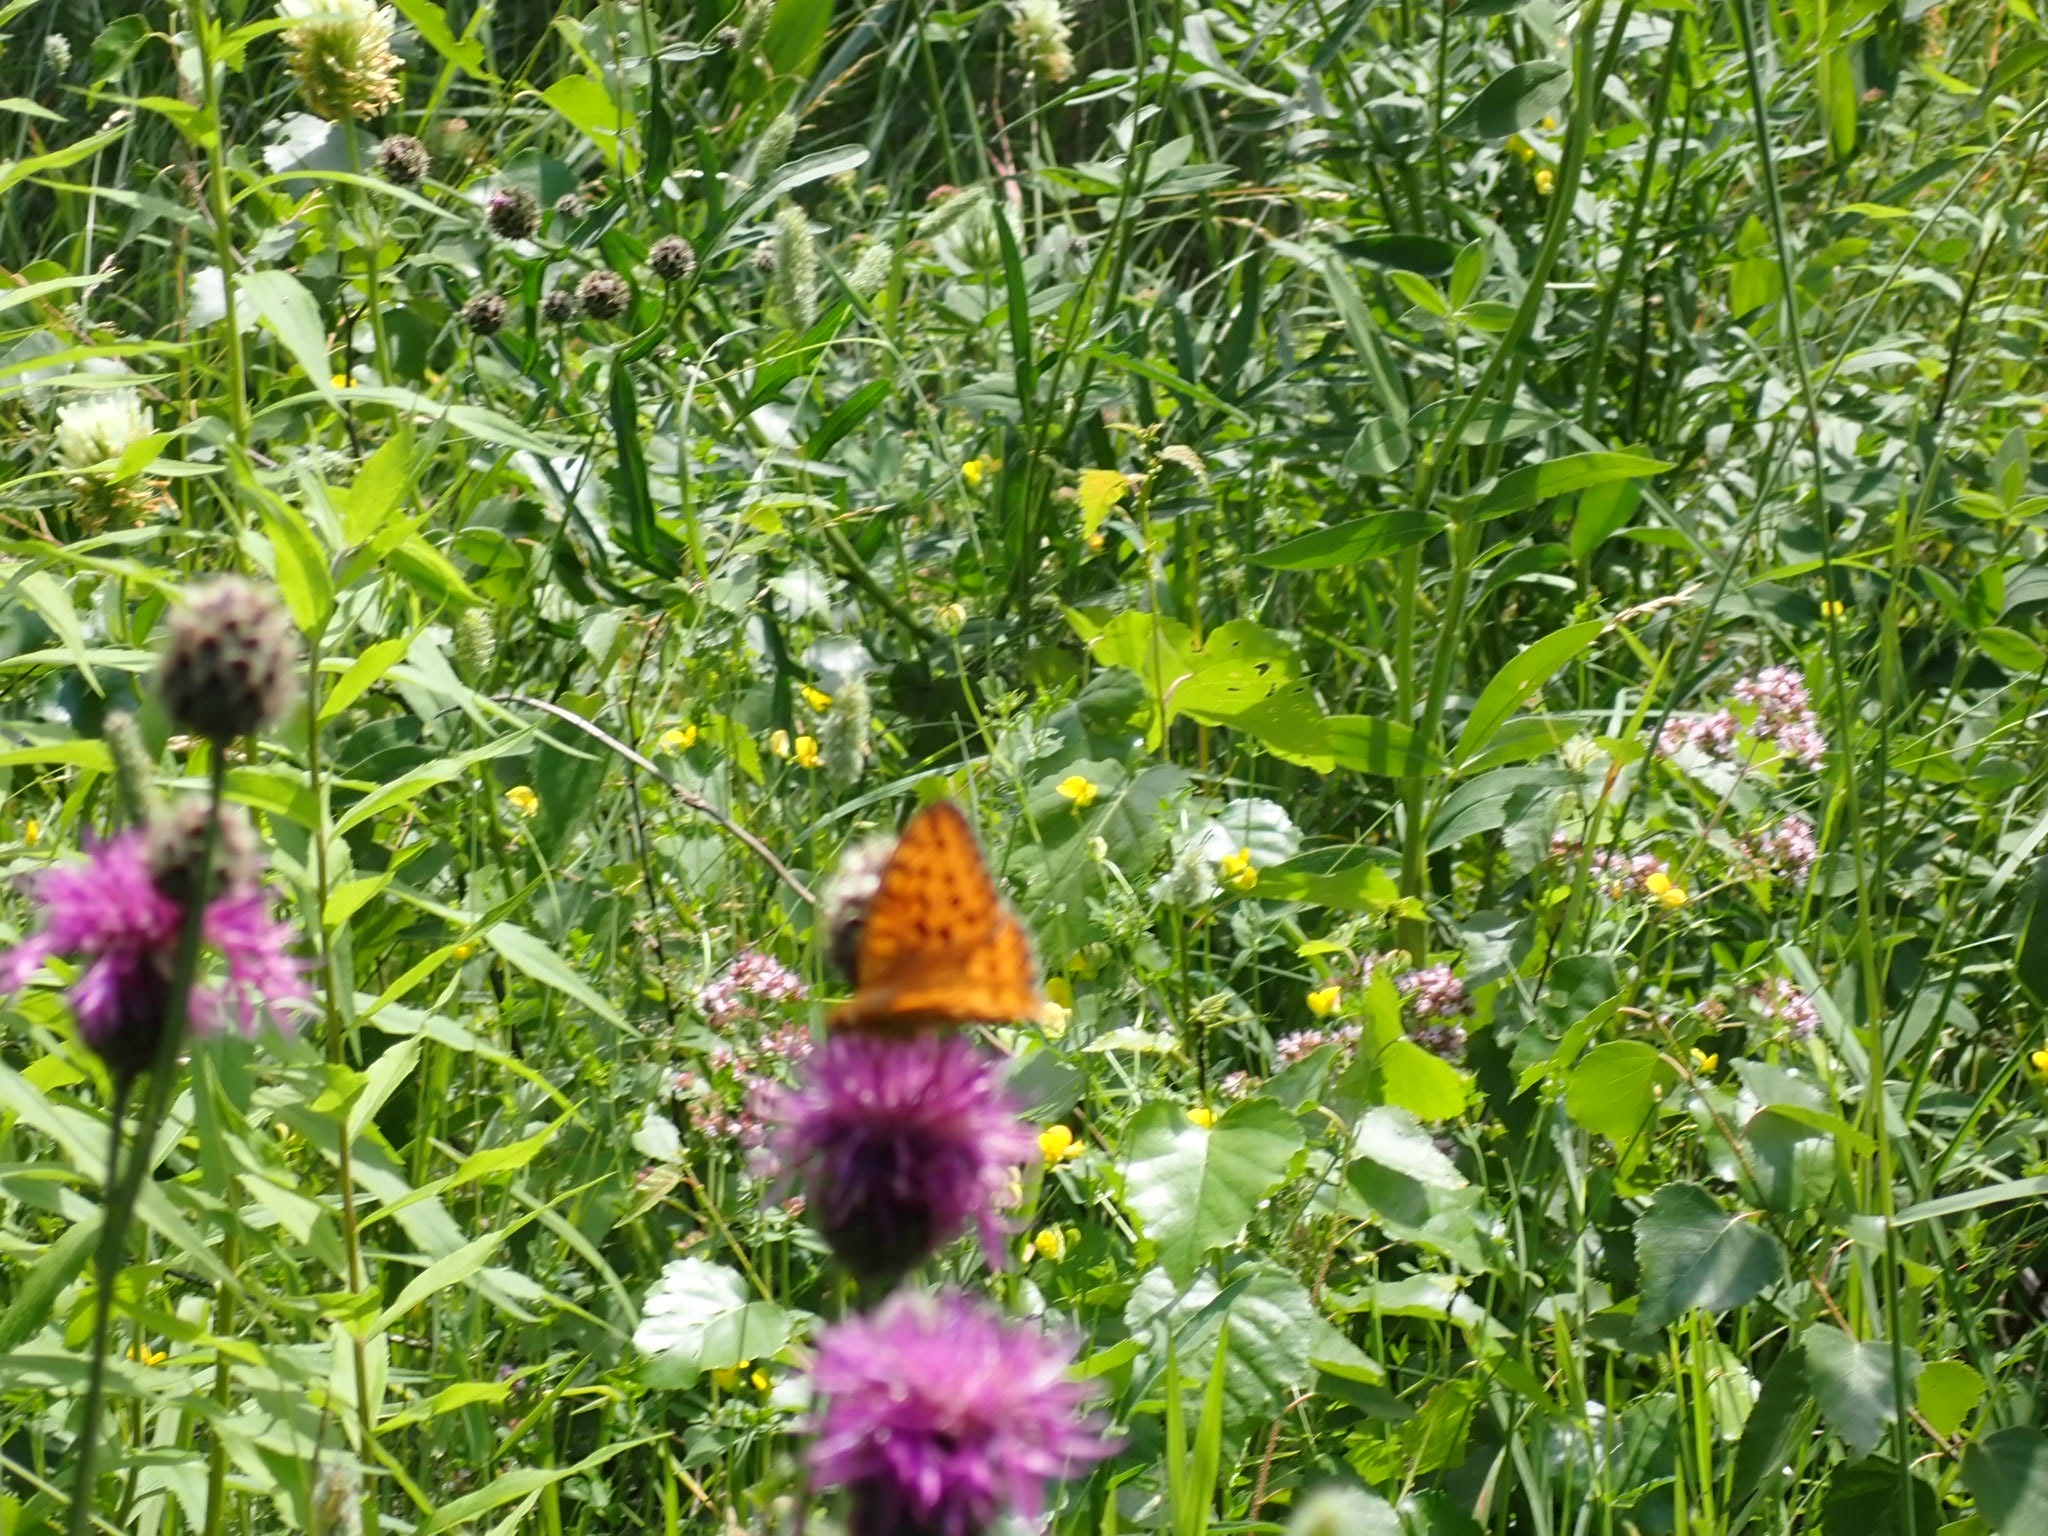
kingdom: Animalia
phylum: Arthropoda
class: Insecta
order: Lepidoptera
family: Nymphalidae
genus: Speyeria
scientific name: Speyeria aglaja
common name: Dark green fritillary
